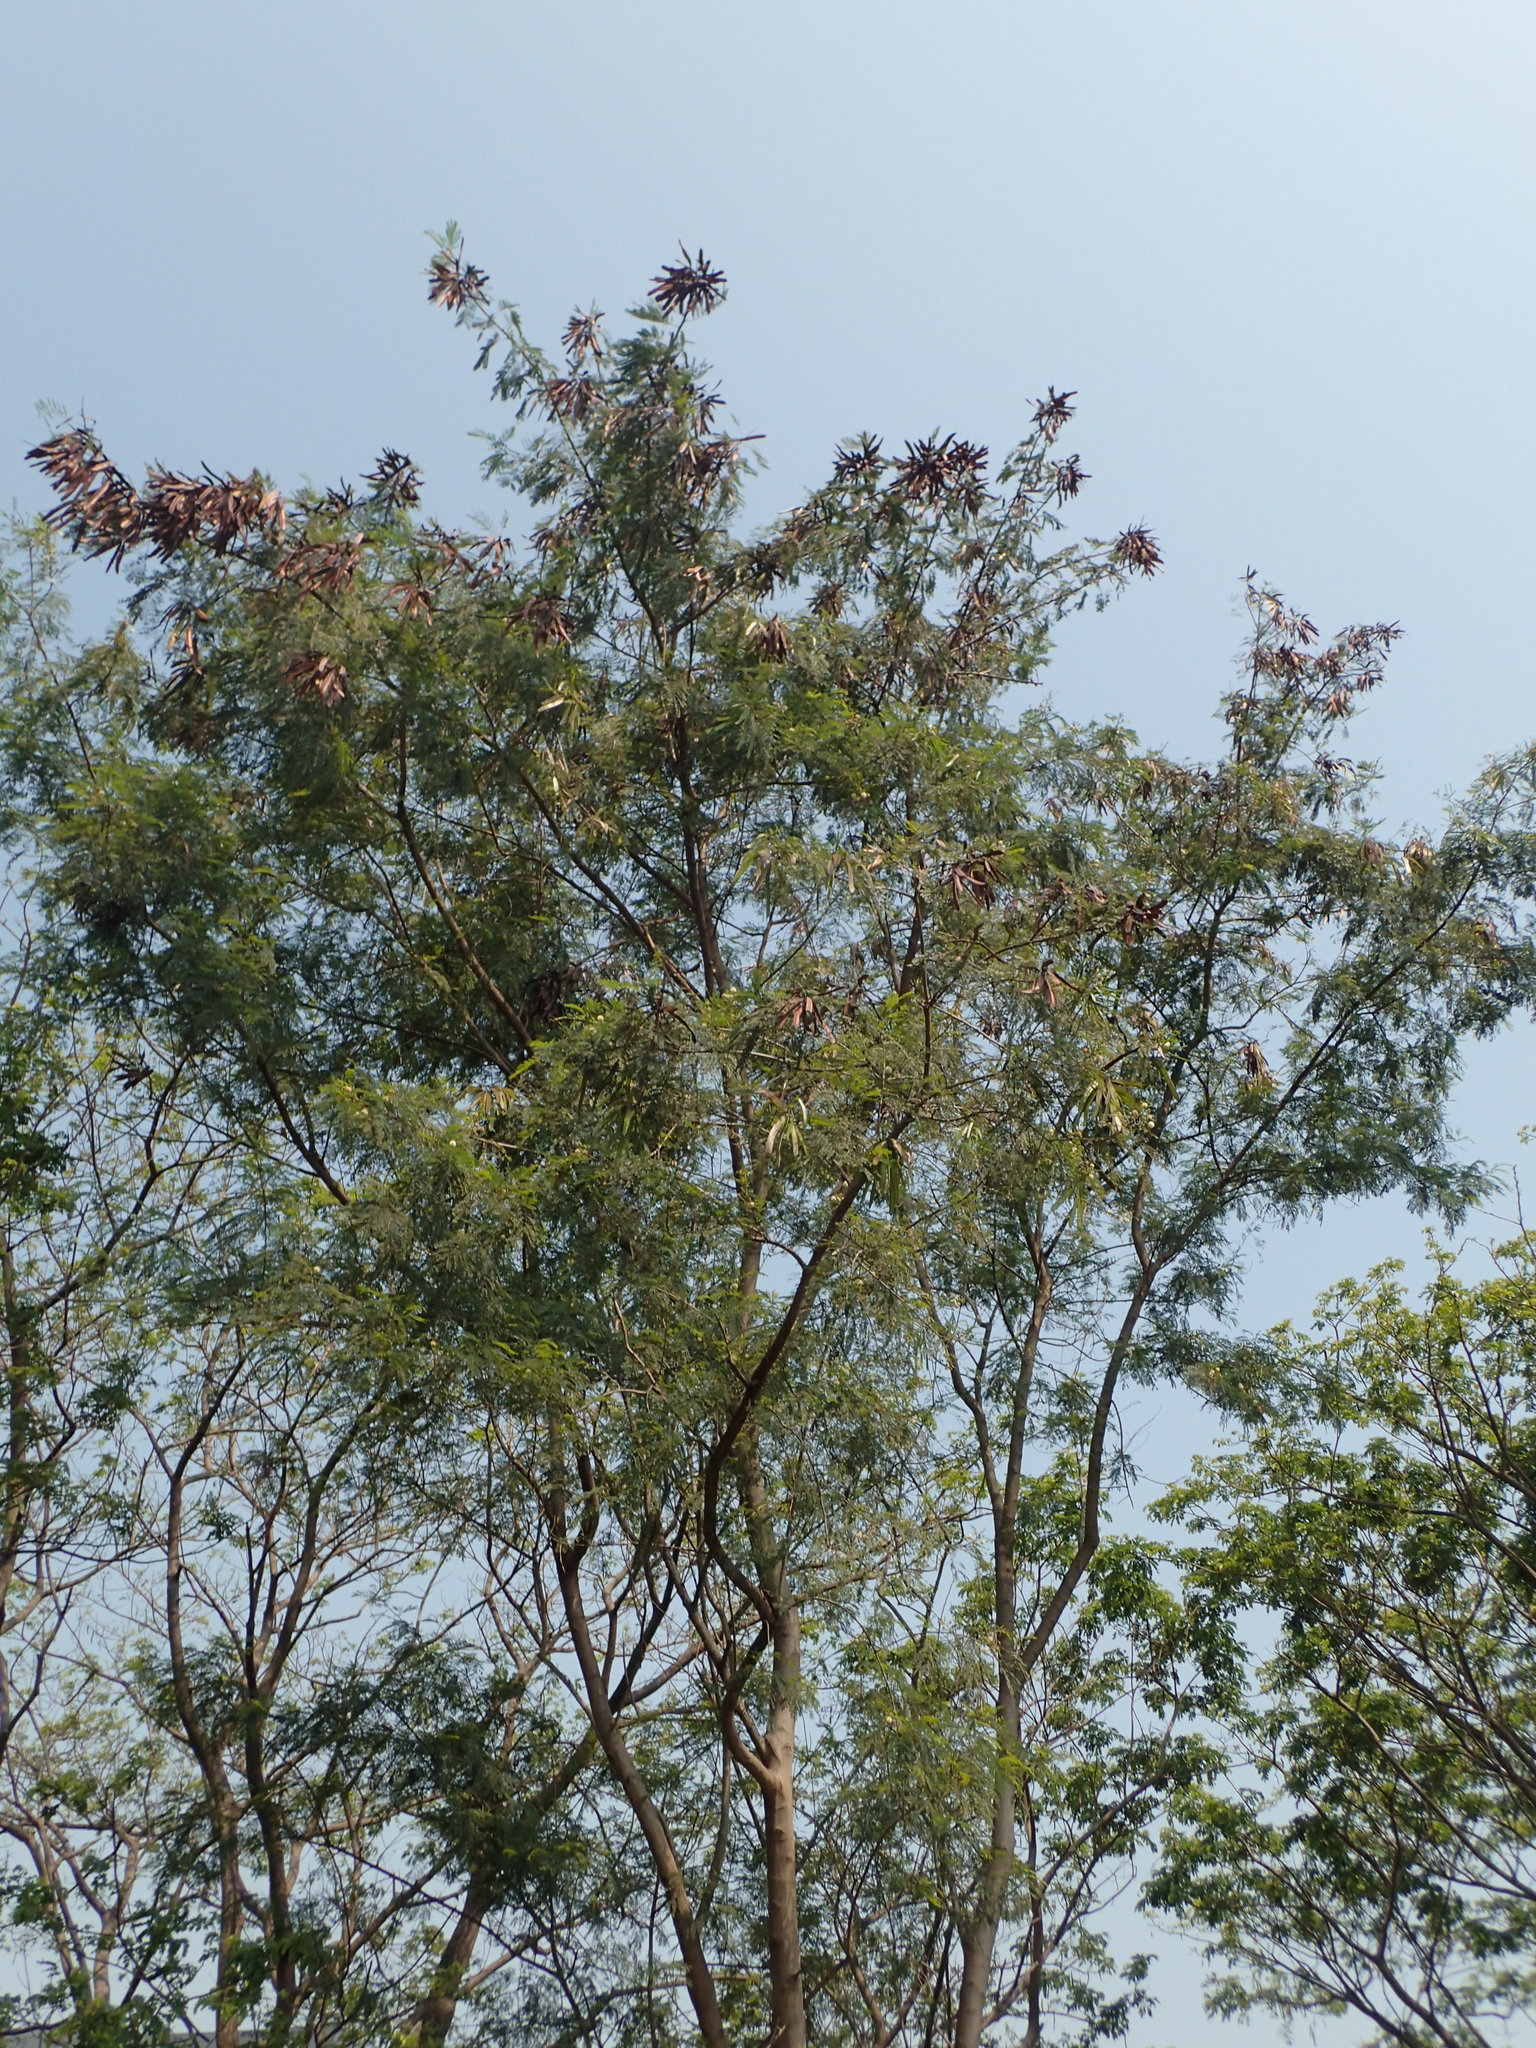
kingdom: Plantae
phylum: Tracheophyta
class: Magnoliopsida
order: Fabales
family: Fabaceae
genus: Leucaena
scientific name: Leucaena leucocephala
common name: White leadtree
